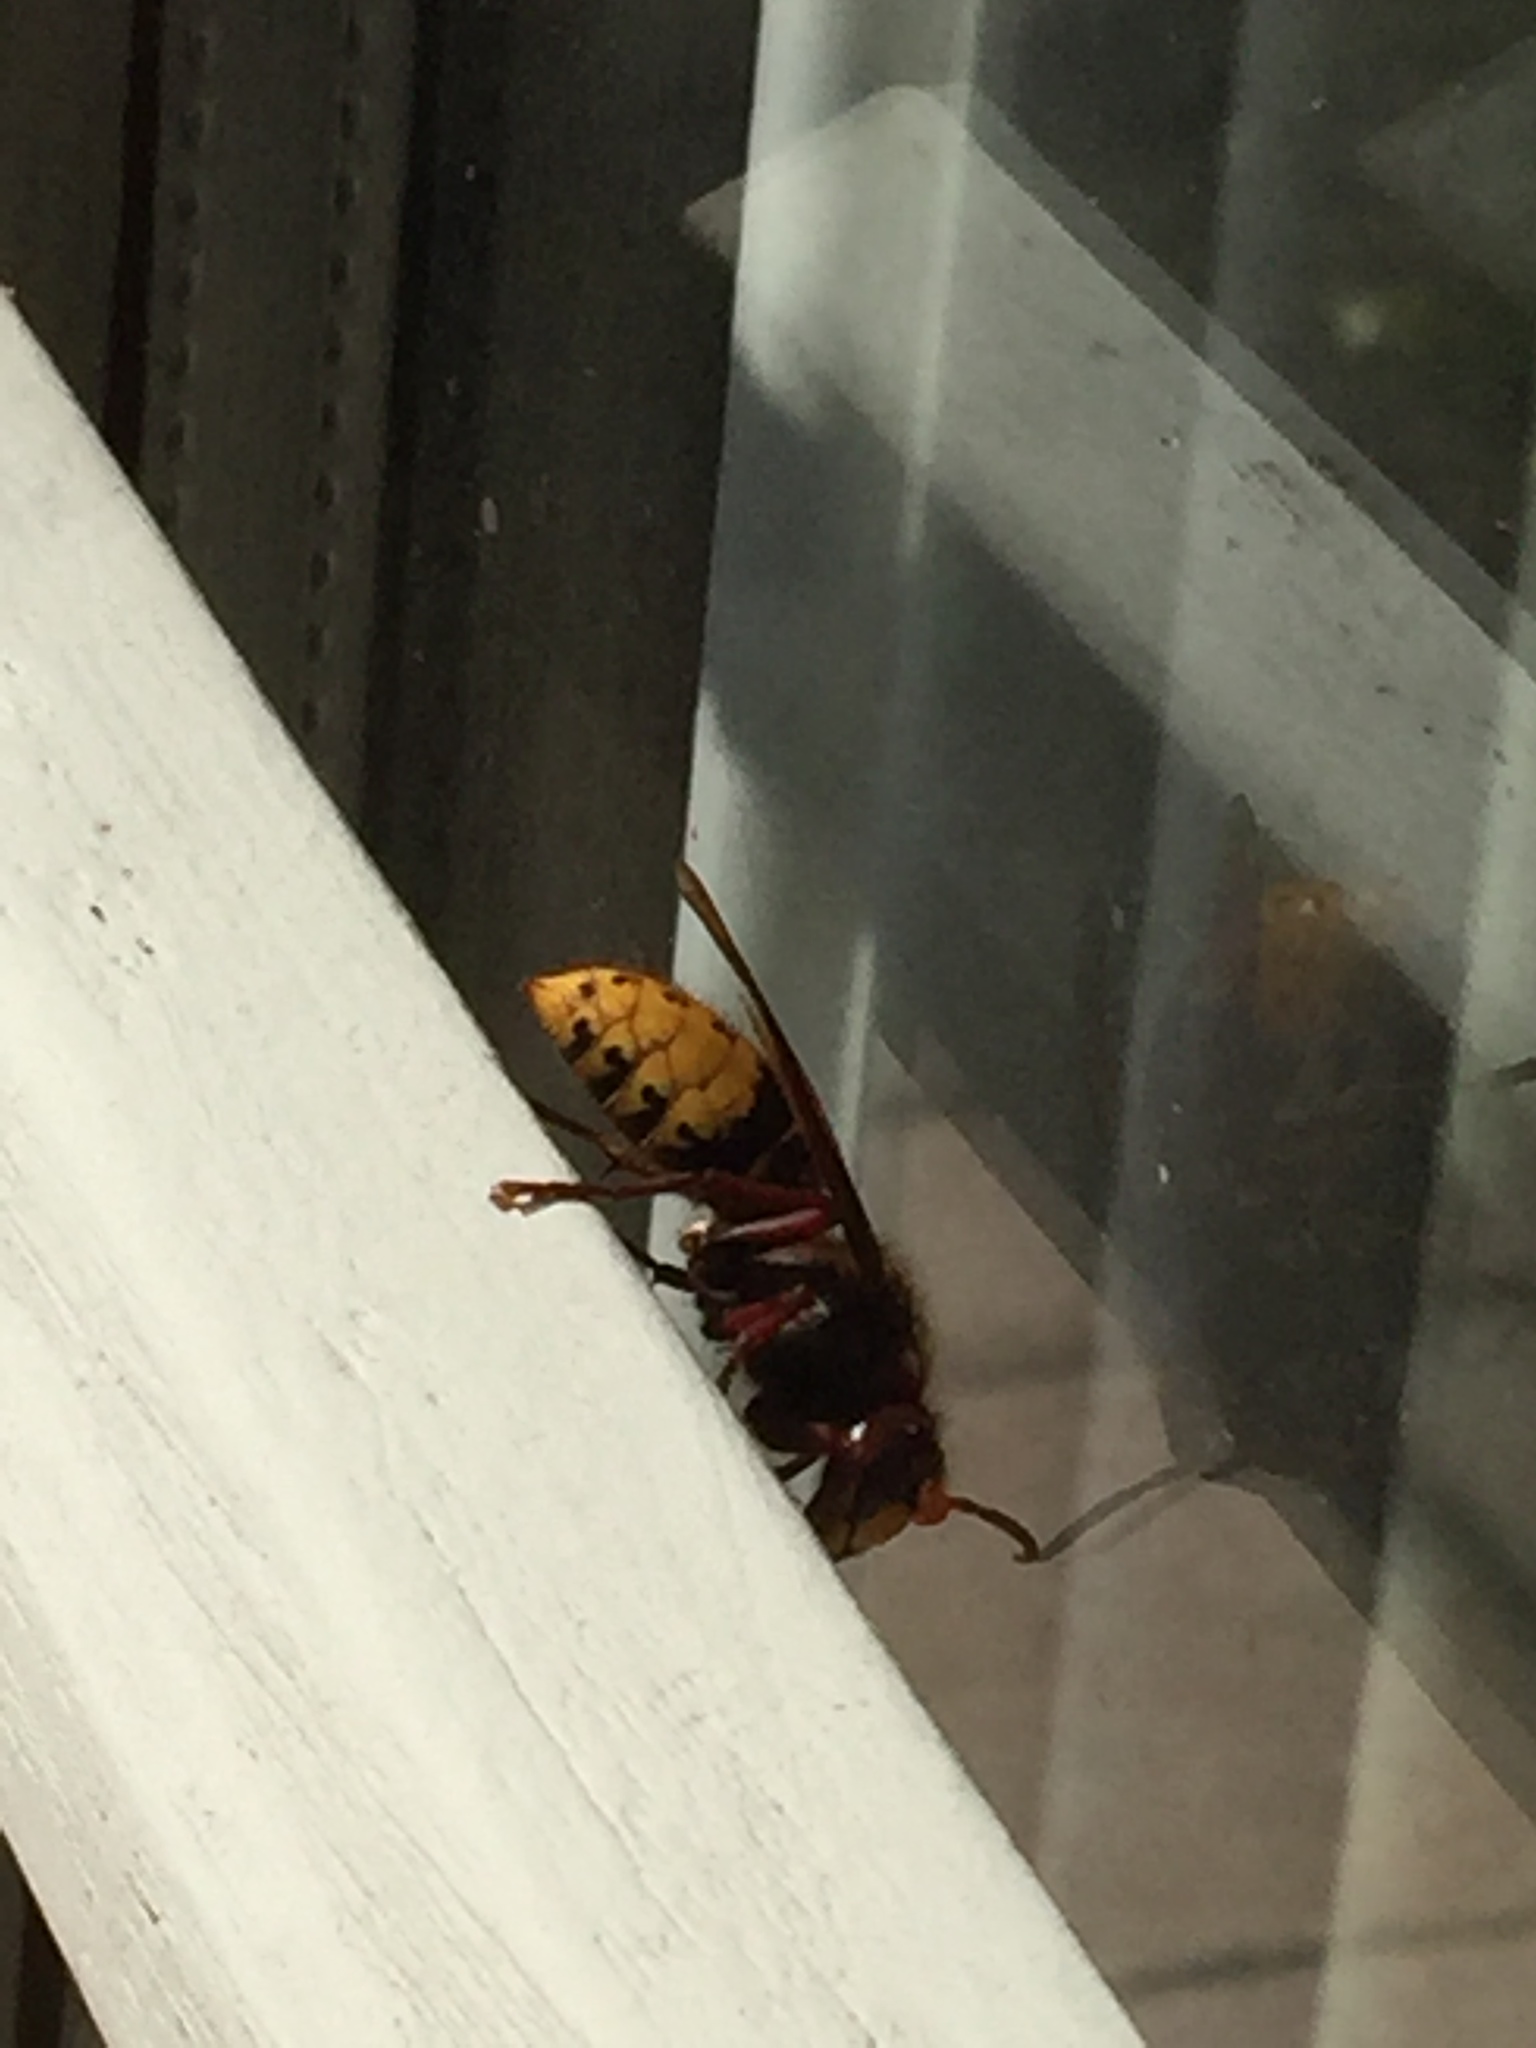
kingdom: Animalia
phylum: Arthropoda
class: Insecta
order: Hymenoptera
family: Vespidae
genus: Vespa
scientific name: Vespa crabro
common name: Hornet
